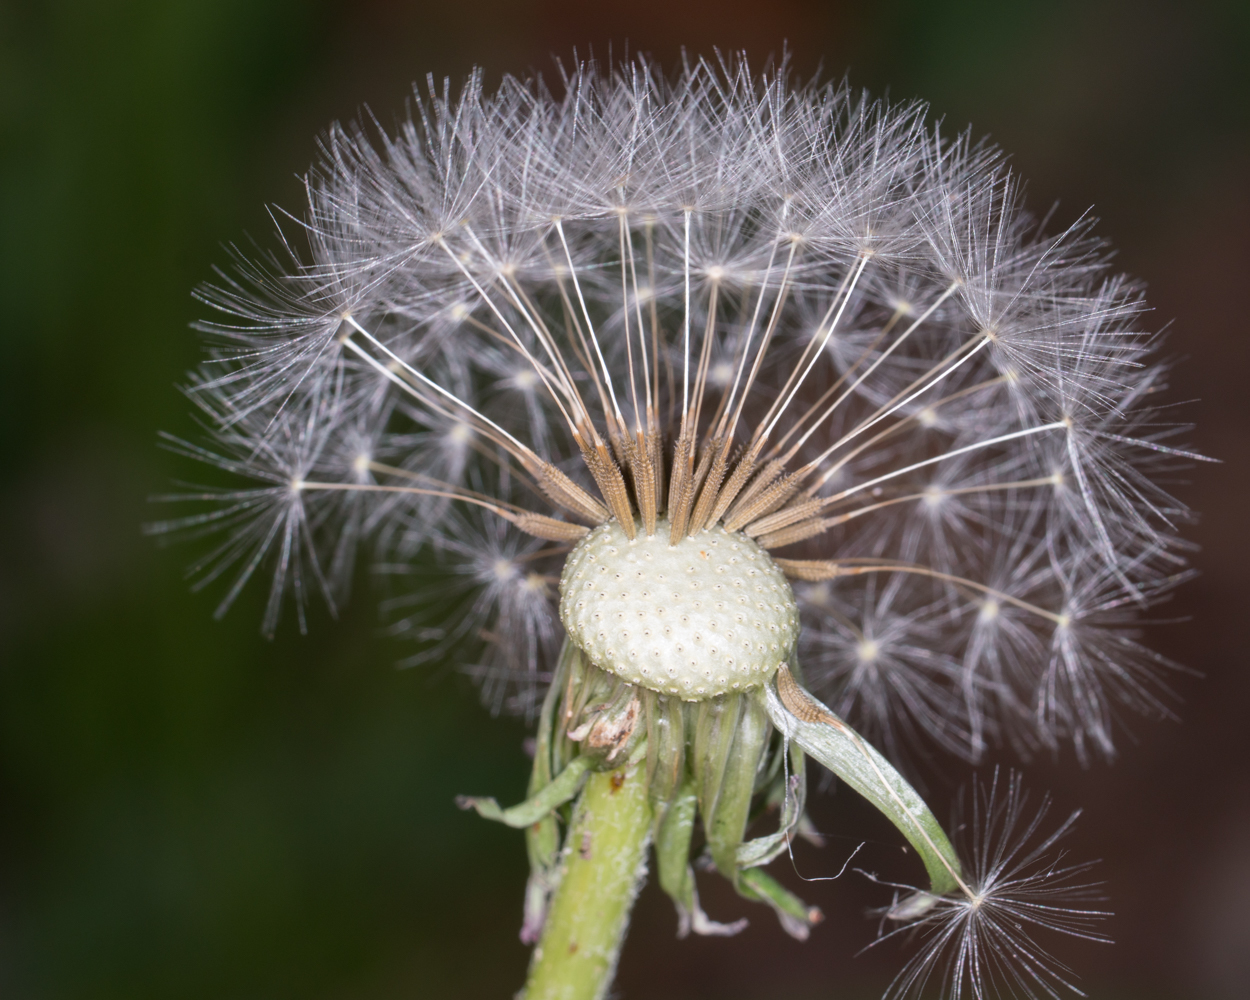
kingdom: Plantae
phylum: Tracheophyta
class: Magnoliopsida
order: Asterales
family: Asteraceae
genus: Taraxacum
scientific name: Taraxacum officinale
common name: Common dandelion
